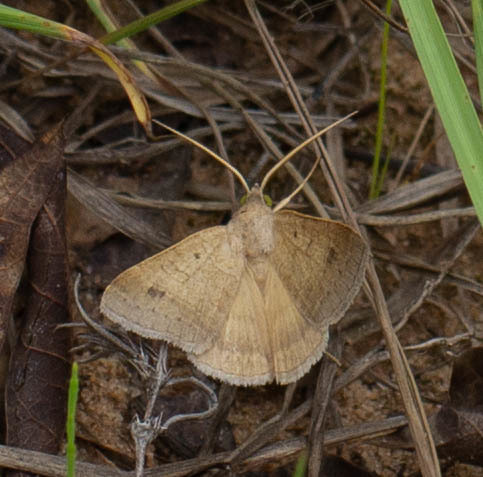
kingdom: Animalia
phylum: Arthropoda
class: Insecta
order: Lepidoptera
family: Erebidae
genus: Caenurgia
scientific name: Caenurgia chloropha
